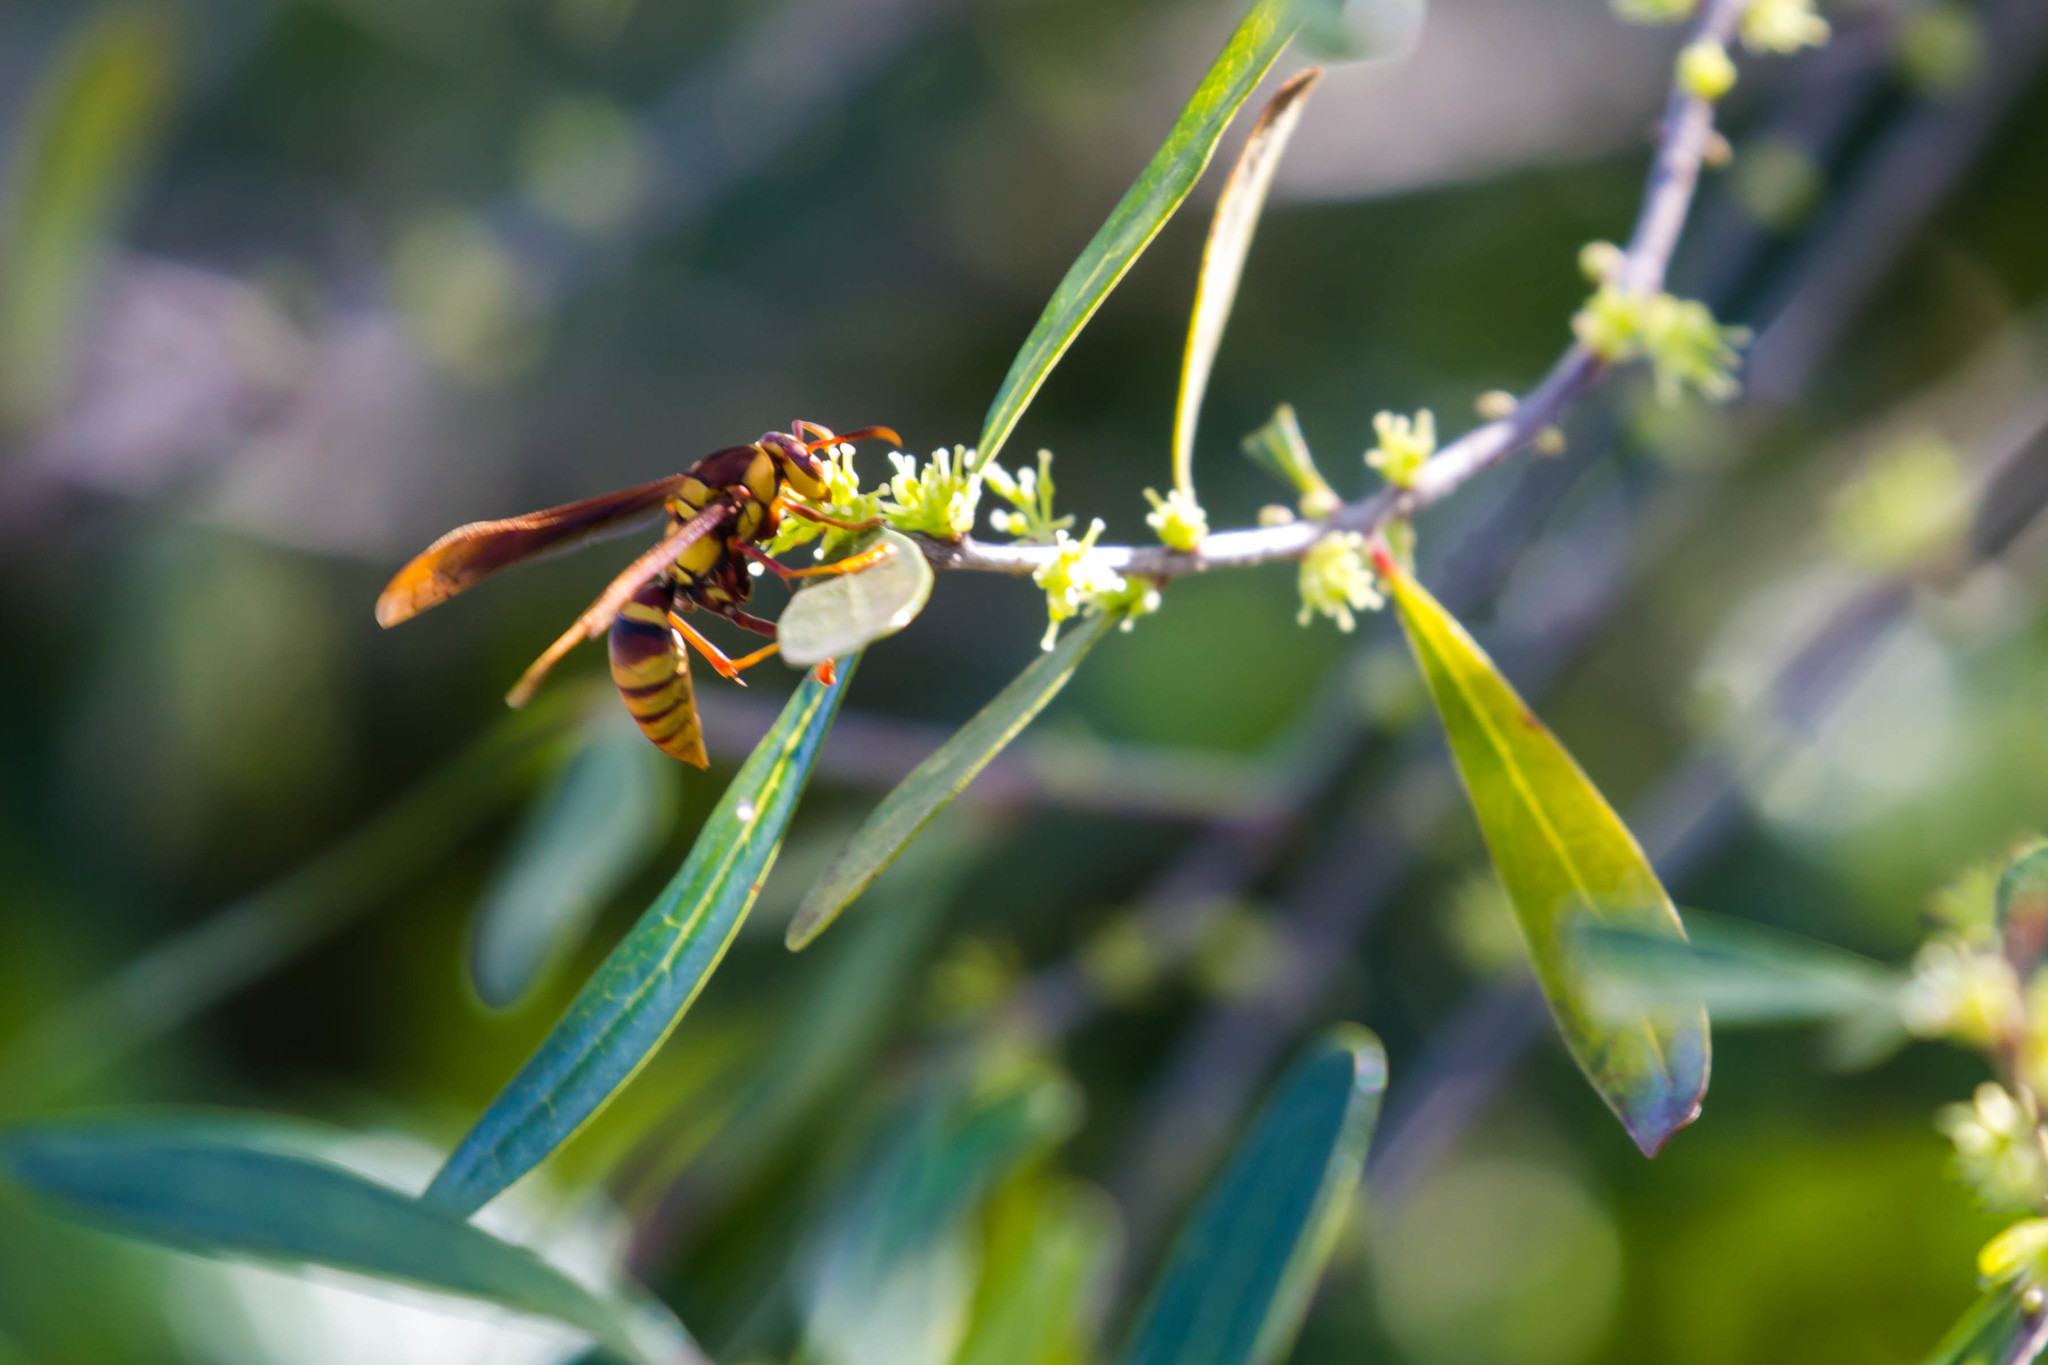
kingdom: Animalia
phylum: Arthropoda
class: Insecta
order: Hymenoptera
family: Eumenidae
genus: Polistes
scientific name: Polistes major
